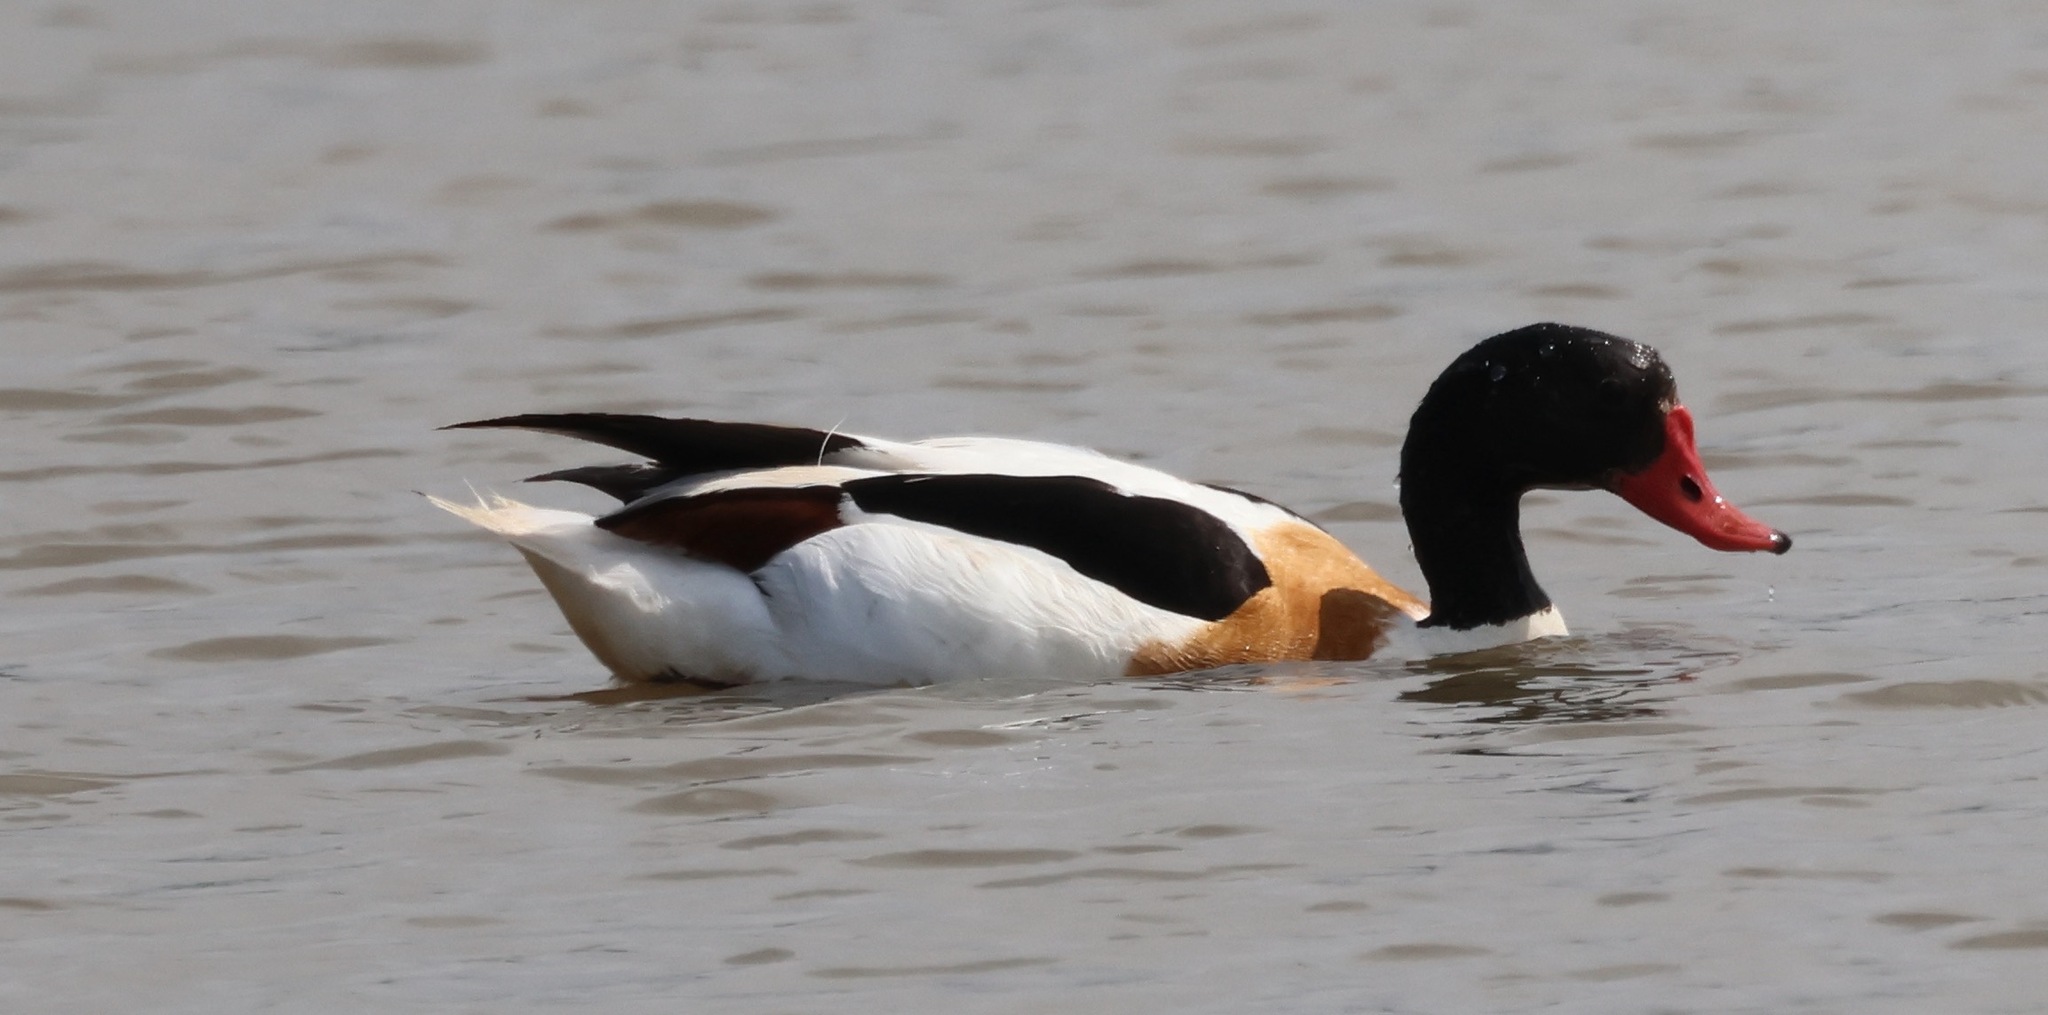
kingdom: Animalia
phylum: Chordata
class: Aves
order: Anseriformes
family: Anatidae
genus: Tadorna
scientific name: Tadorna tadorna
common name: Common shelduck
